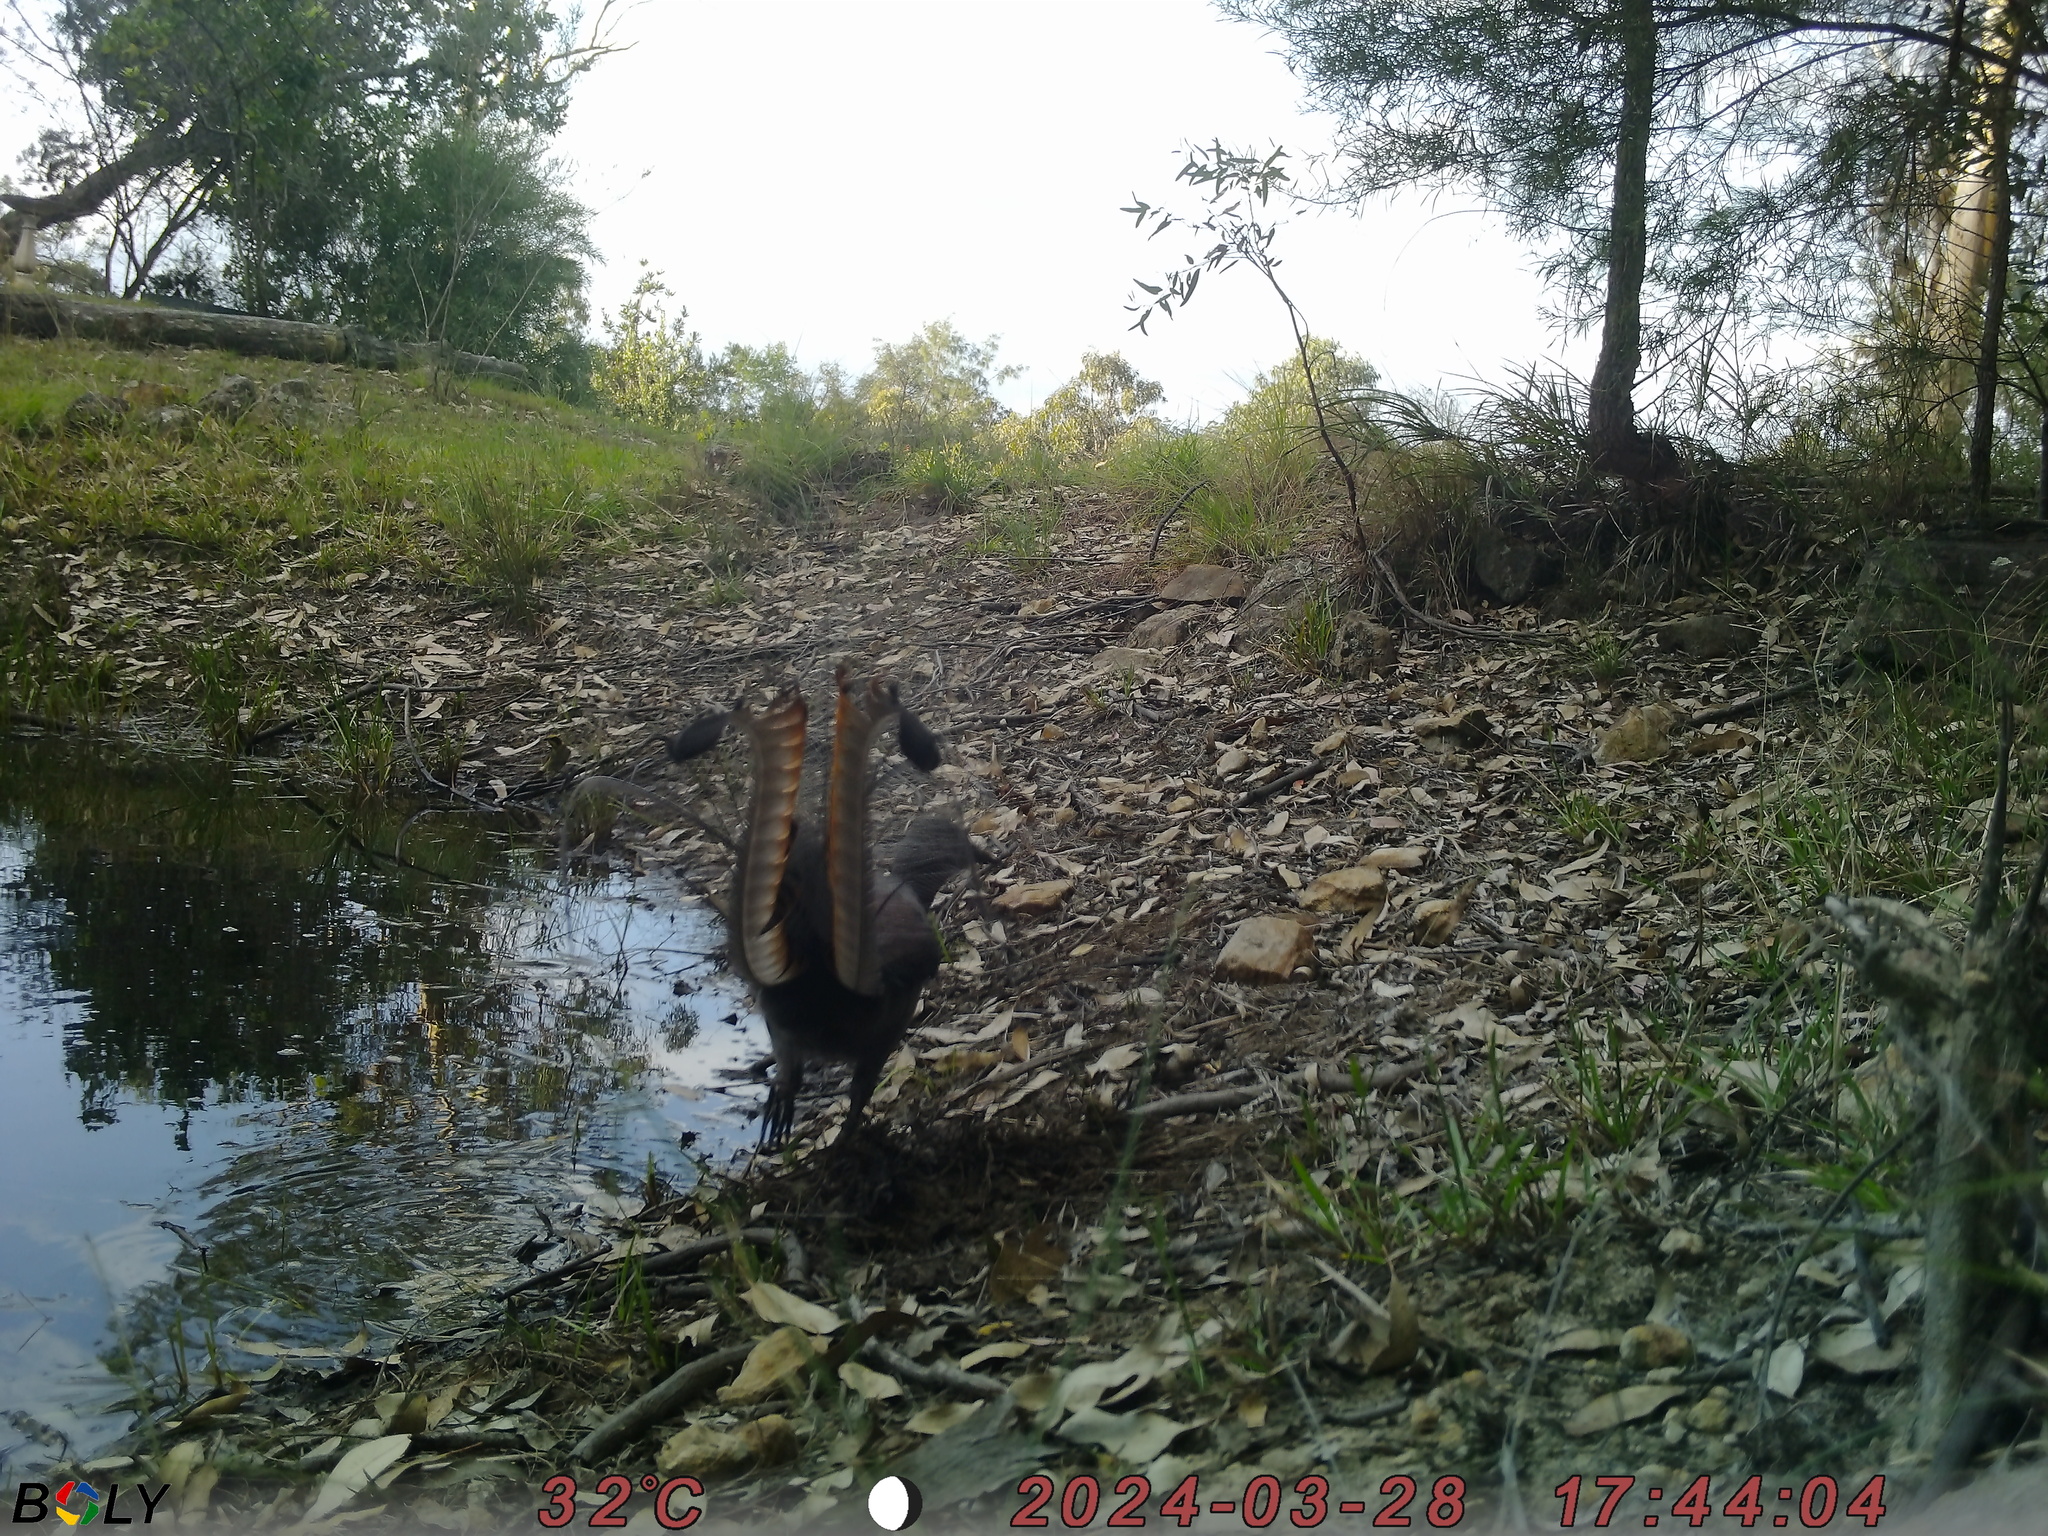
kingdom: Animalia
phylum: Chordata
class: Aves
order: Passeriformes
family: Menuridae
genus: Menura
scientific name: Menura novaehollandiae
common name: Superb lyrebird
